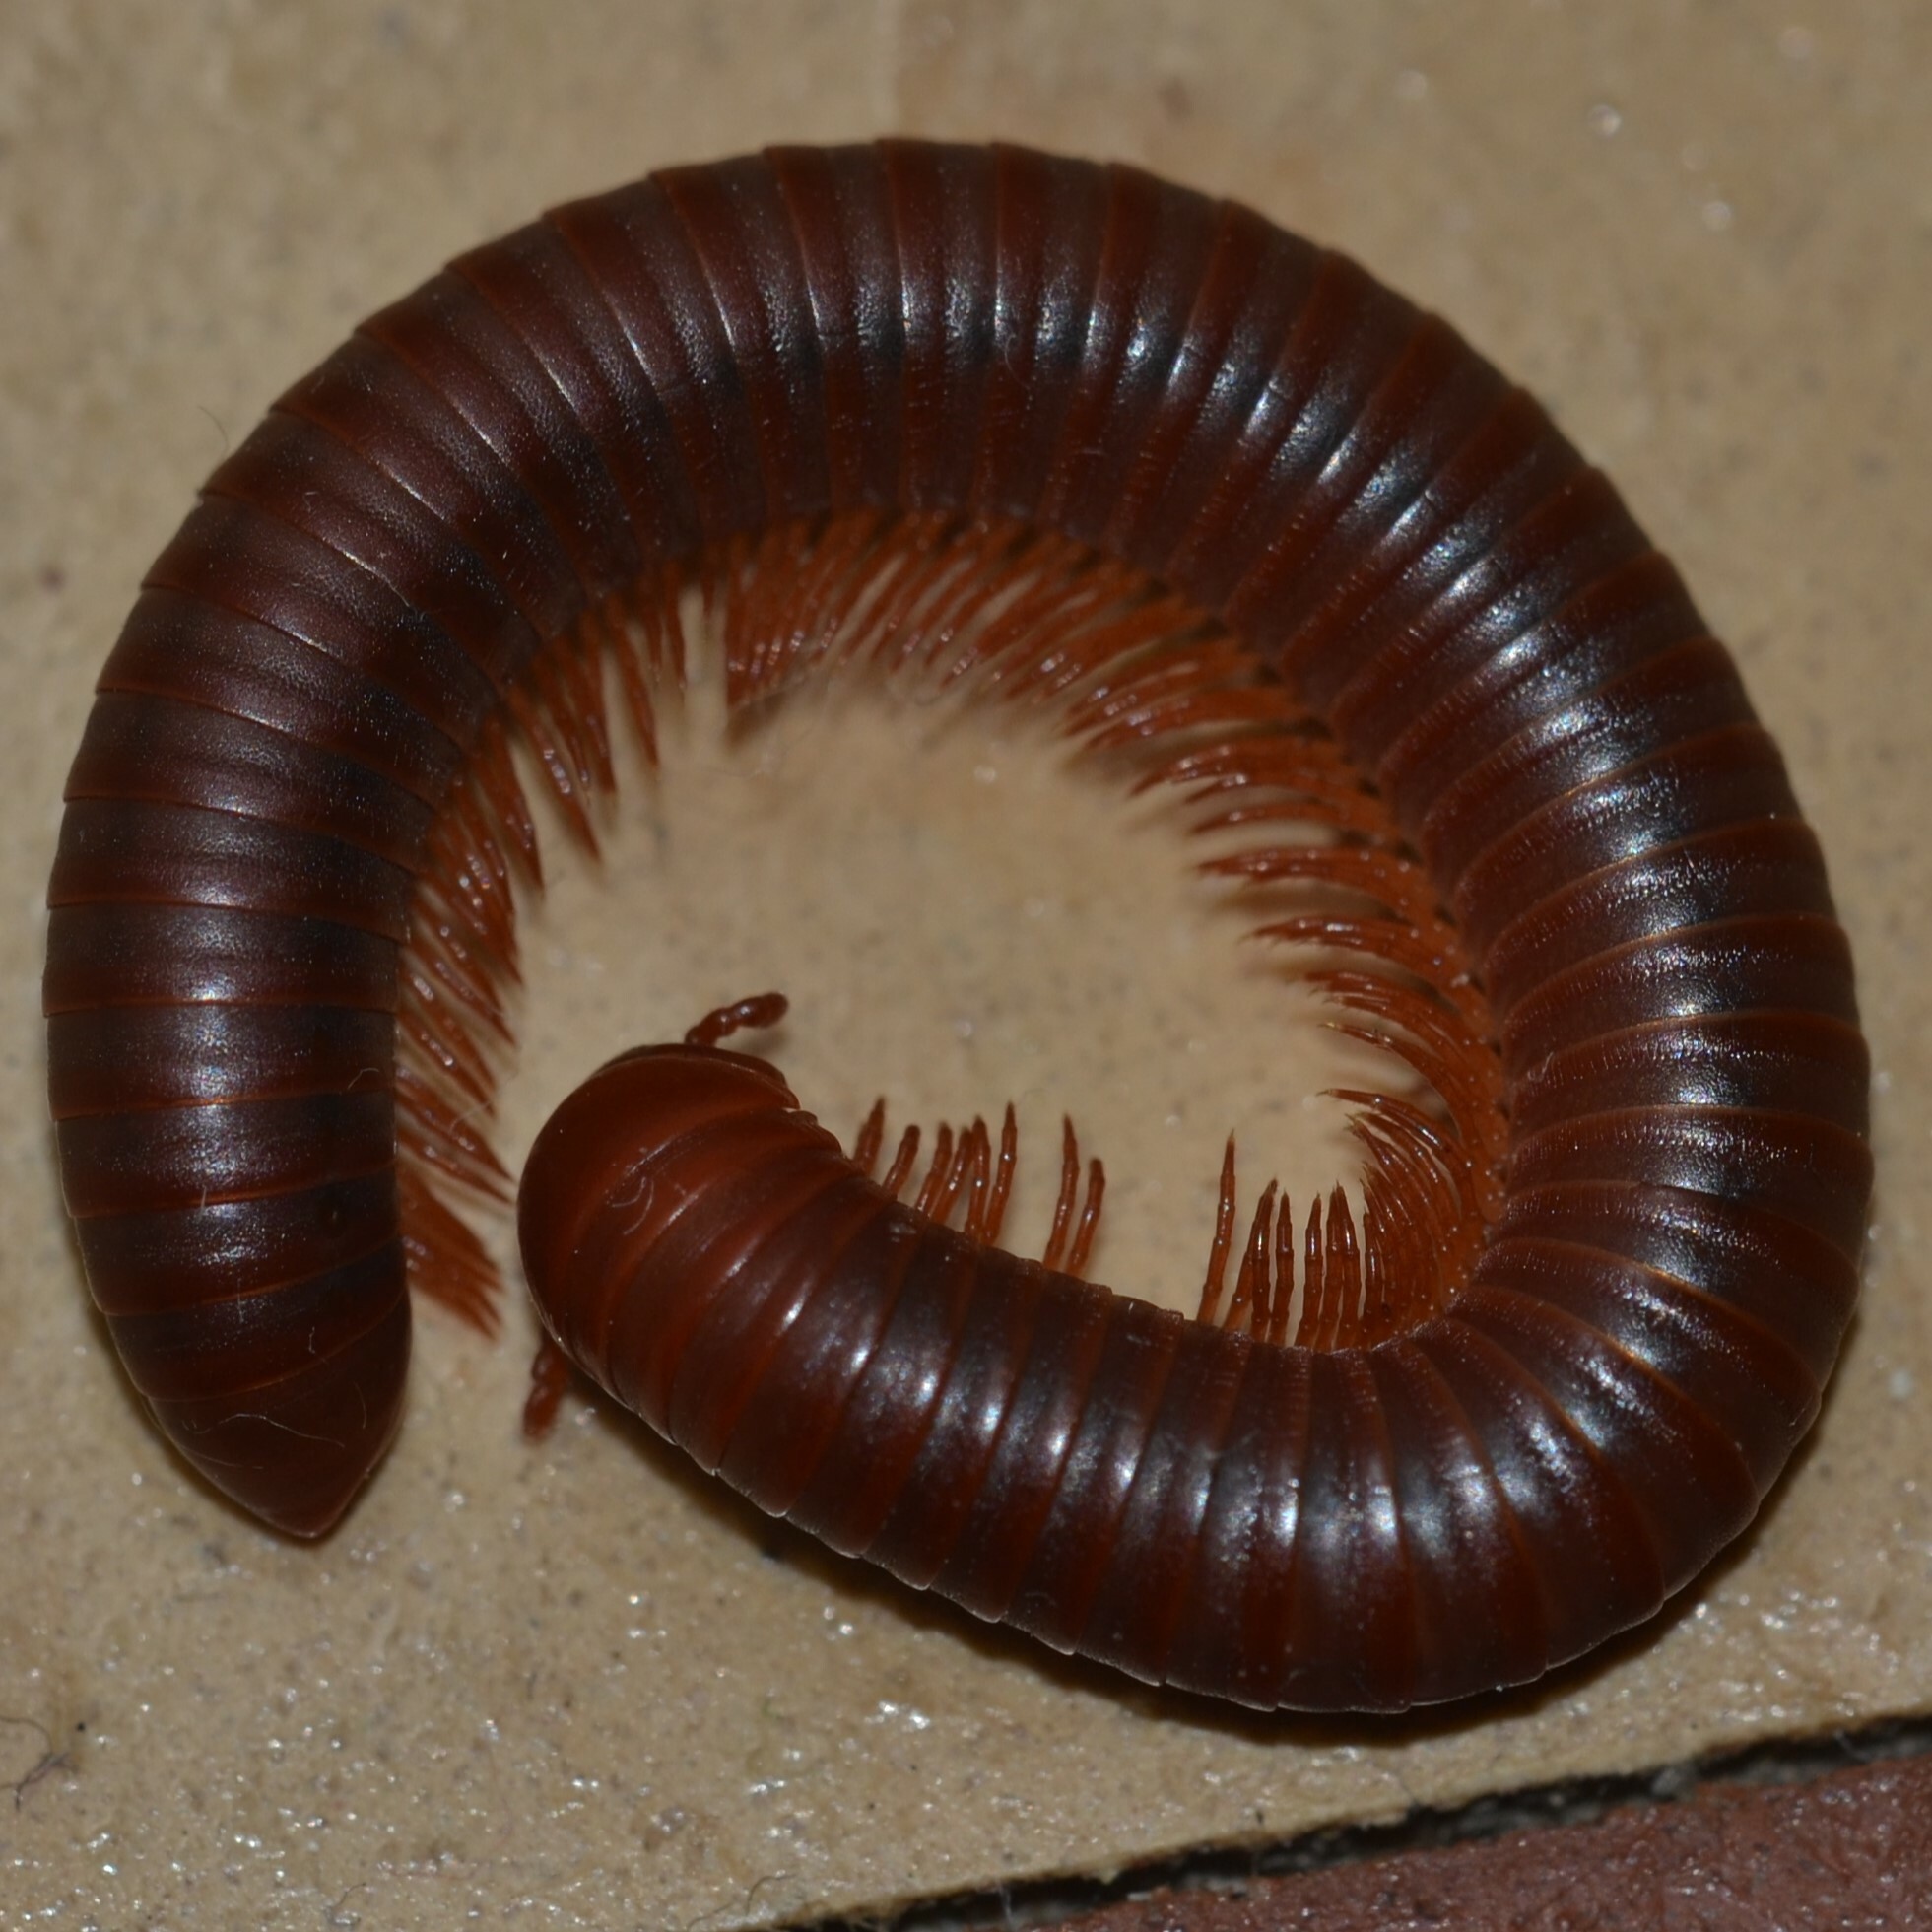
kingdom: Animalia
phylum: Arthropoda
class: Diplopoda
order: Spirobolida
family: Pachybolidae
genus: Trigoniulus
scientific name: Trigoniulus corallinus
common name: Millipede
